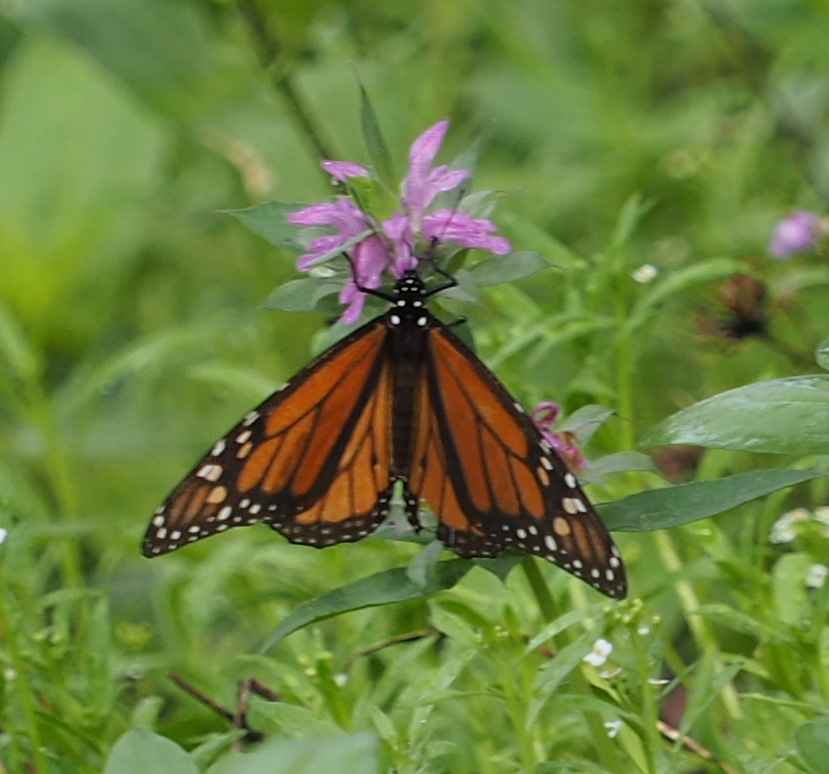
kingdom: Animalia
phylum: Arthropoda
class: Insecta
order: Lepidoptera
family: Nymphalidae
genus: Danaus
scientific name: Danaus plexippus
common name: Monarch
